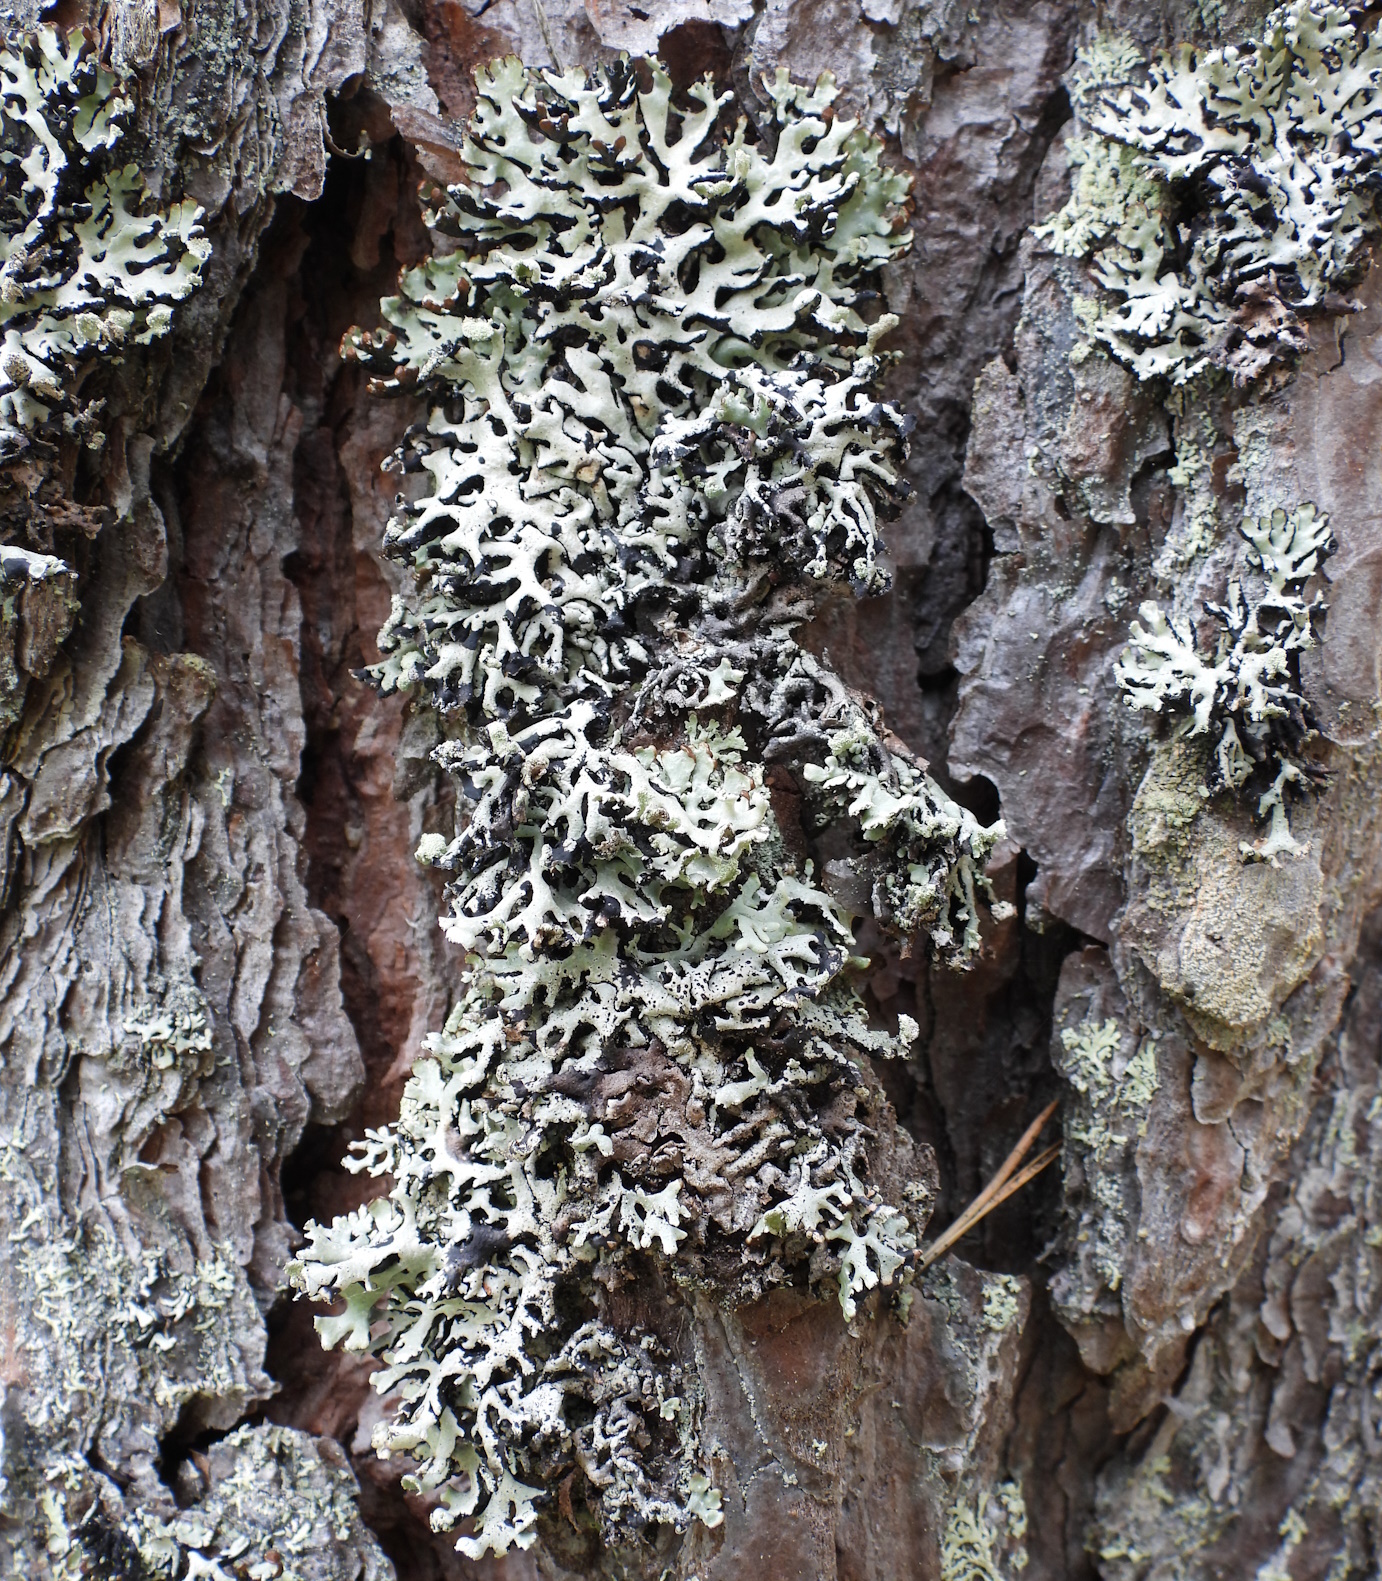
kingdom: Fungi
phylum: Ascomycota
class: Lecanoromycetes
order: Lecanorales
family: Parmeliaceae
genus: Hypogymnia
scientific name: Hypogymnia physodes
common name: Dark crottle
